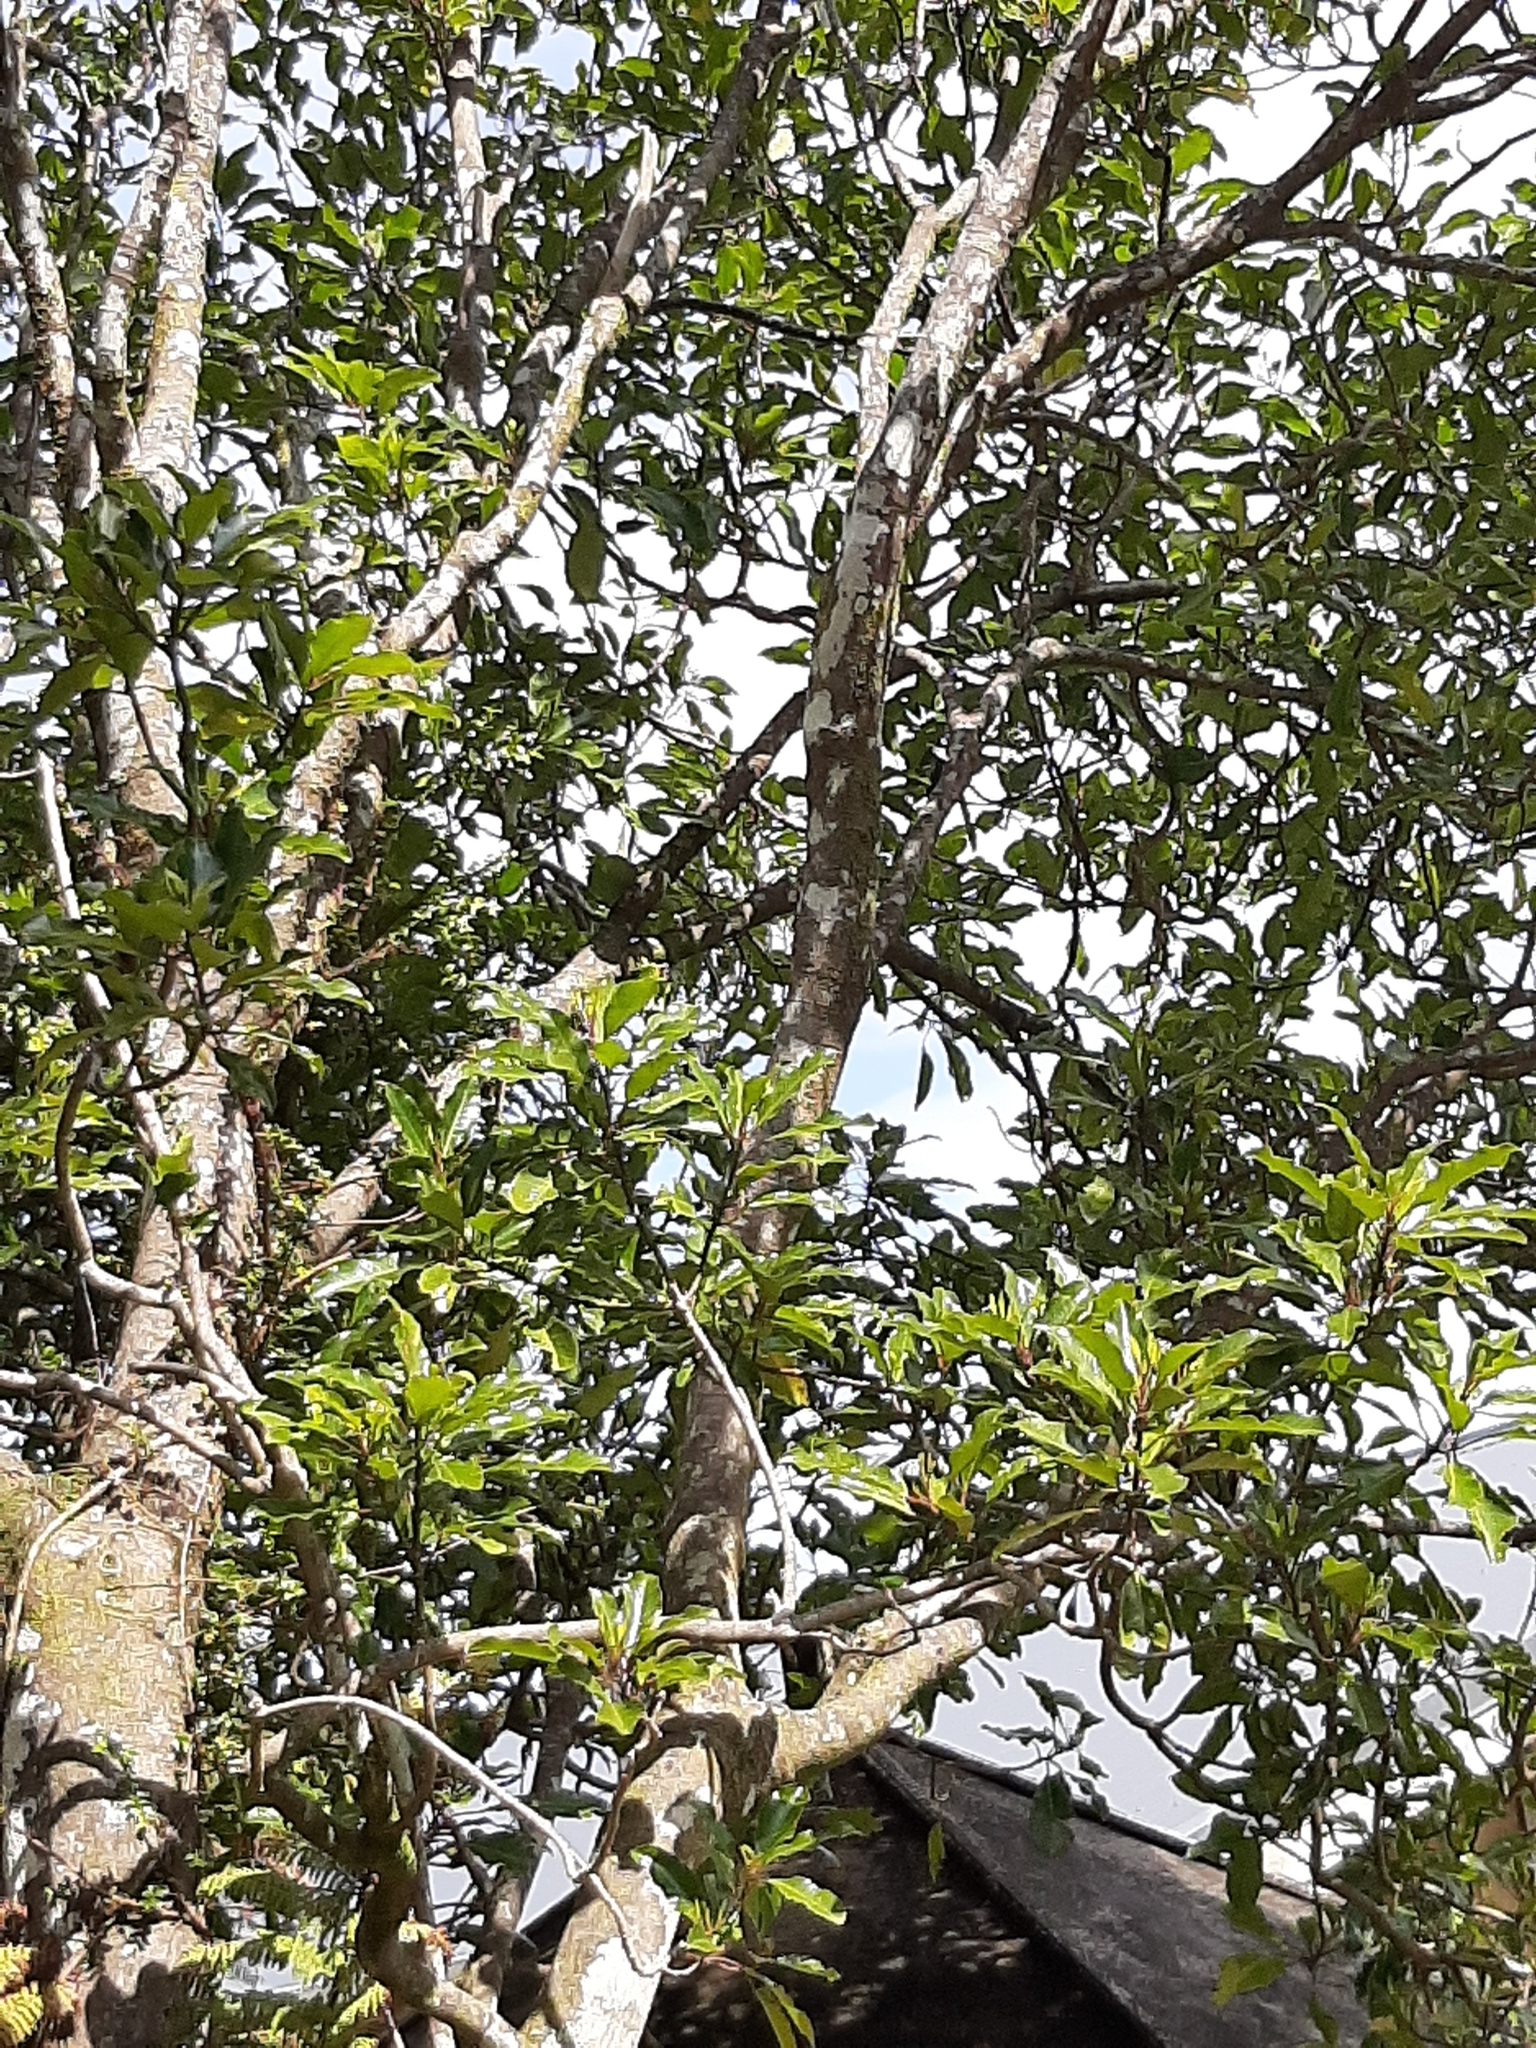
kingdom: Plantae
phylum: Tracheophyta
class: Magnoliopsida
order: Apiales
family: Araliaceae
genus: Raukaua
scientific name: Raukaua edgerleyi
